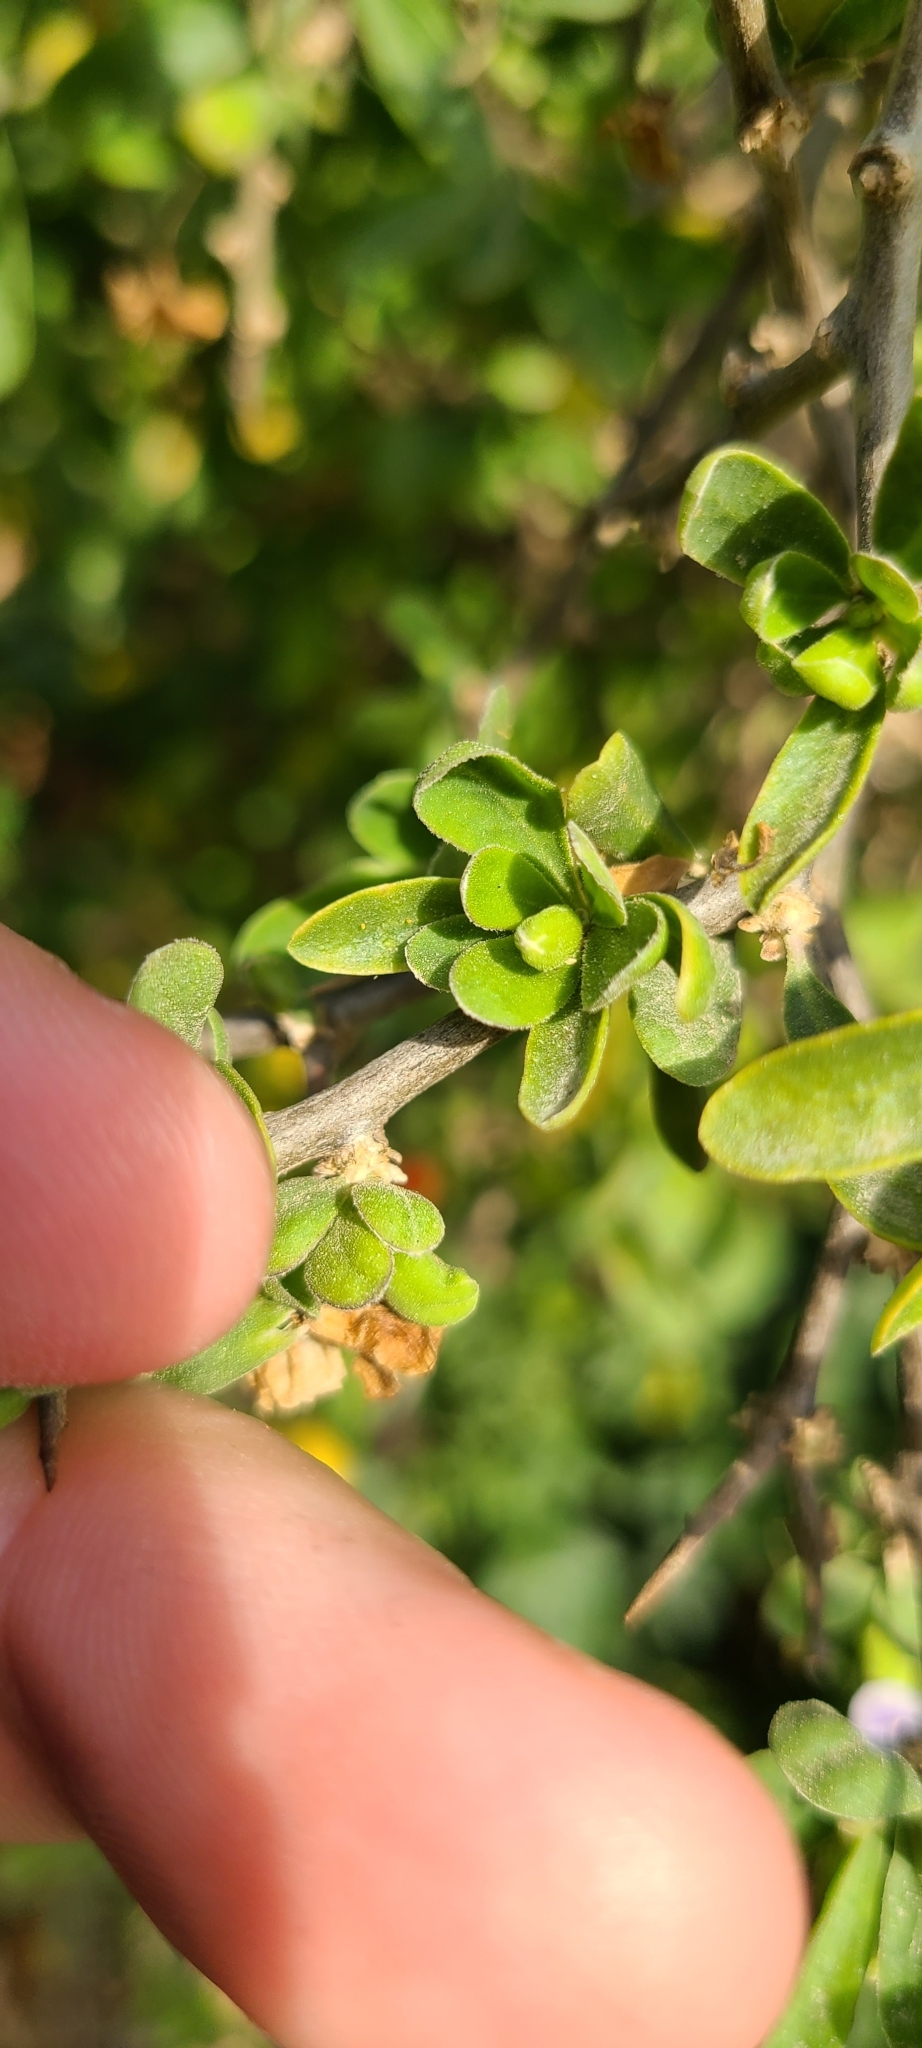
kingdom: Plantae
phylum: Tracheophyta
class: Magnoliopsida
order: Solanales
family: Solanaceae
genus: Lycium
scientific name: Lycium ferocissimum
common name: African boxthorn
